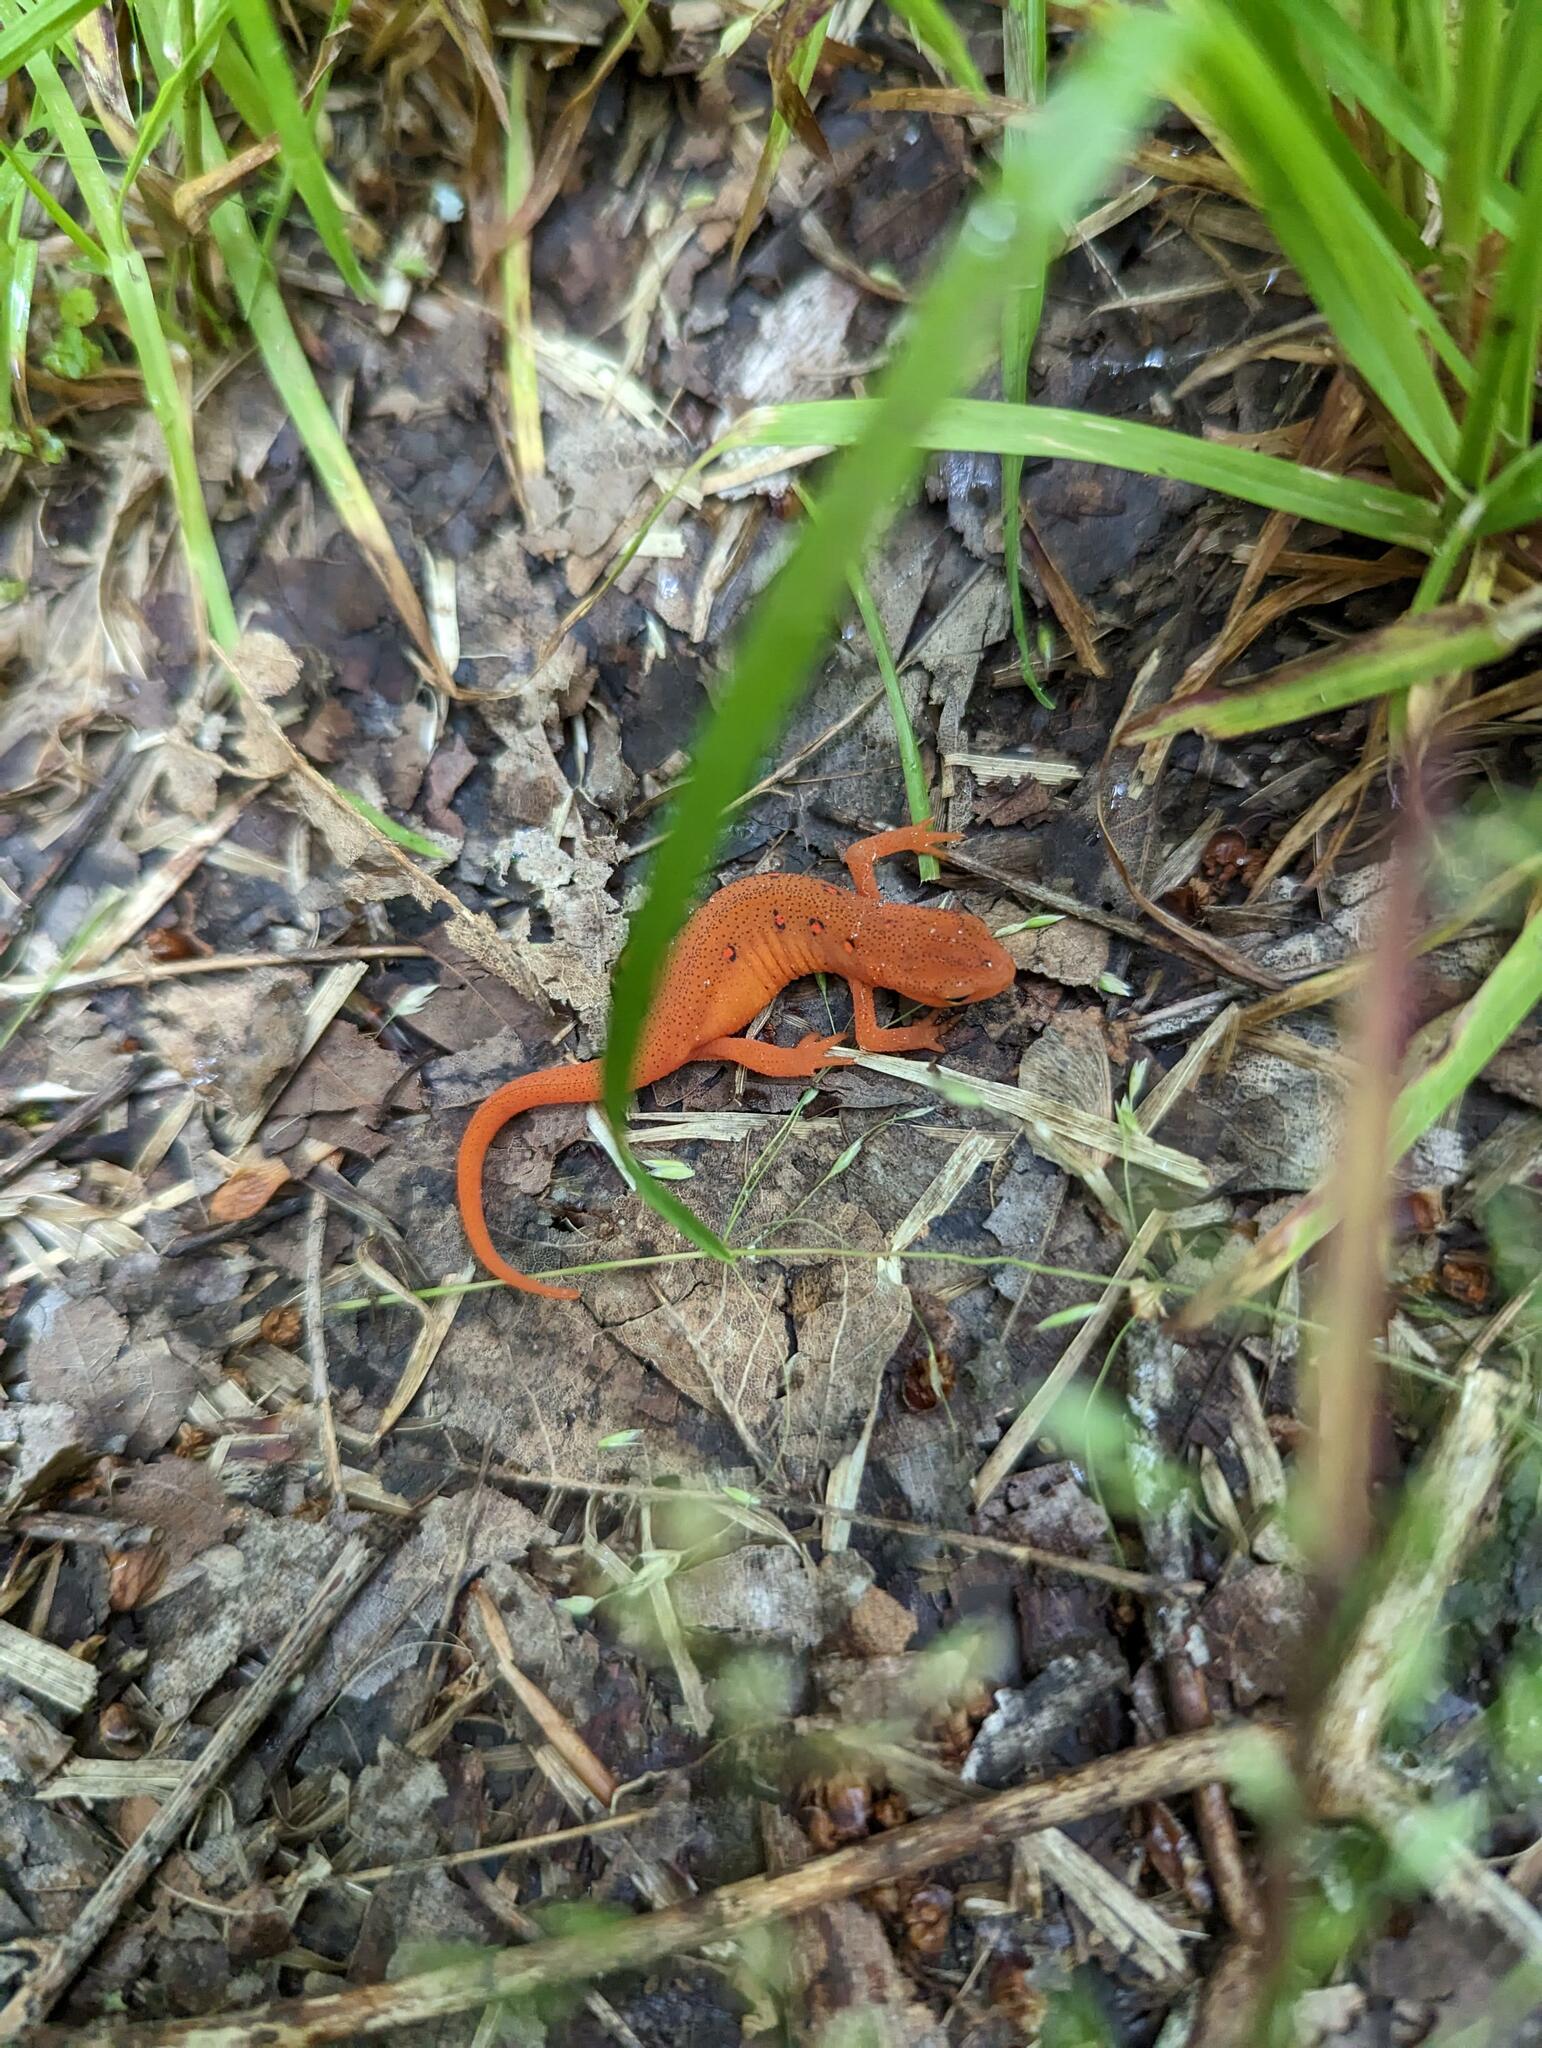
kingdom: Animalia
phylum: Chordata
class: Amphibia
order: Caudata
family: Salamandridae
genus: Notophthalmus
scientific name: Notophthalmus viridescens
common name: Eastern newt
